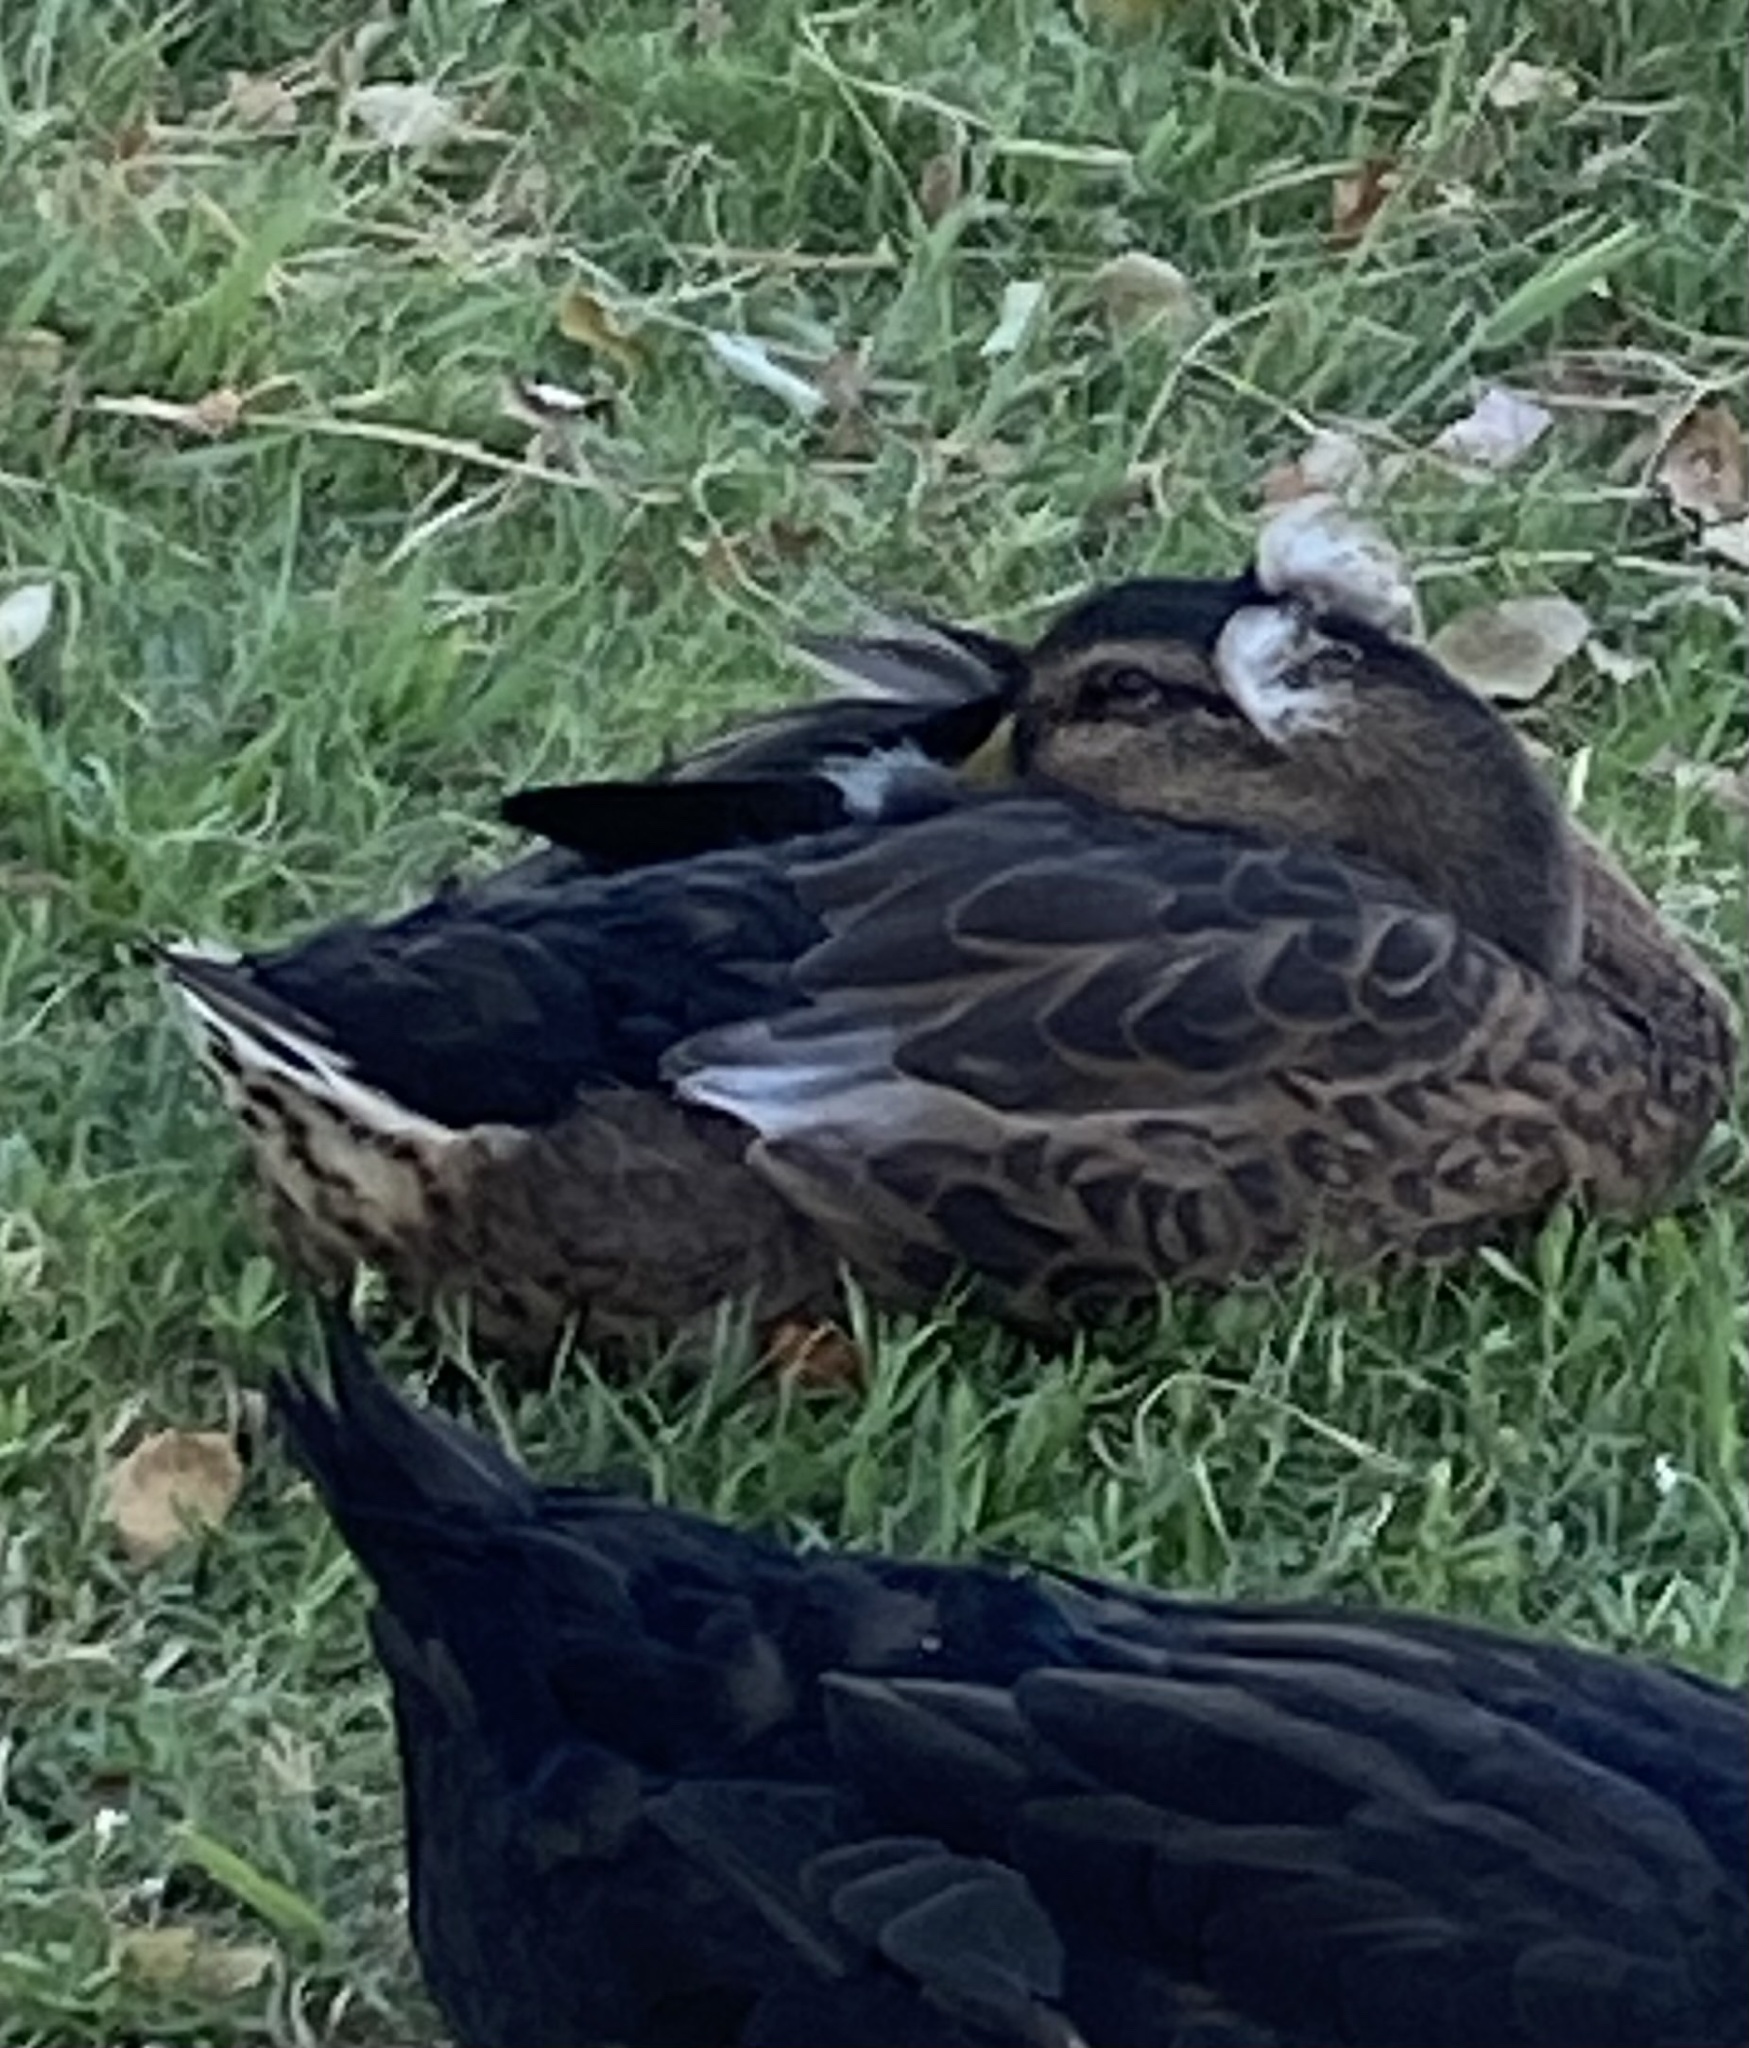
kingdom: Animalia
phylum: Chordata
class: Aves
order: Anseriformes
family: Anatidae
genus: Anas
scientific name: Anas platyrhynchos
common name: Mallard
